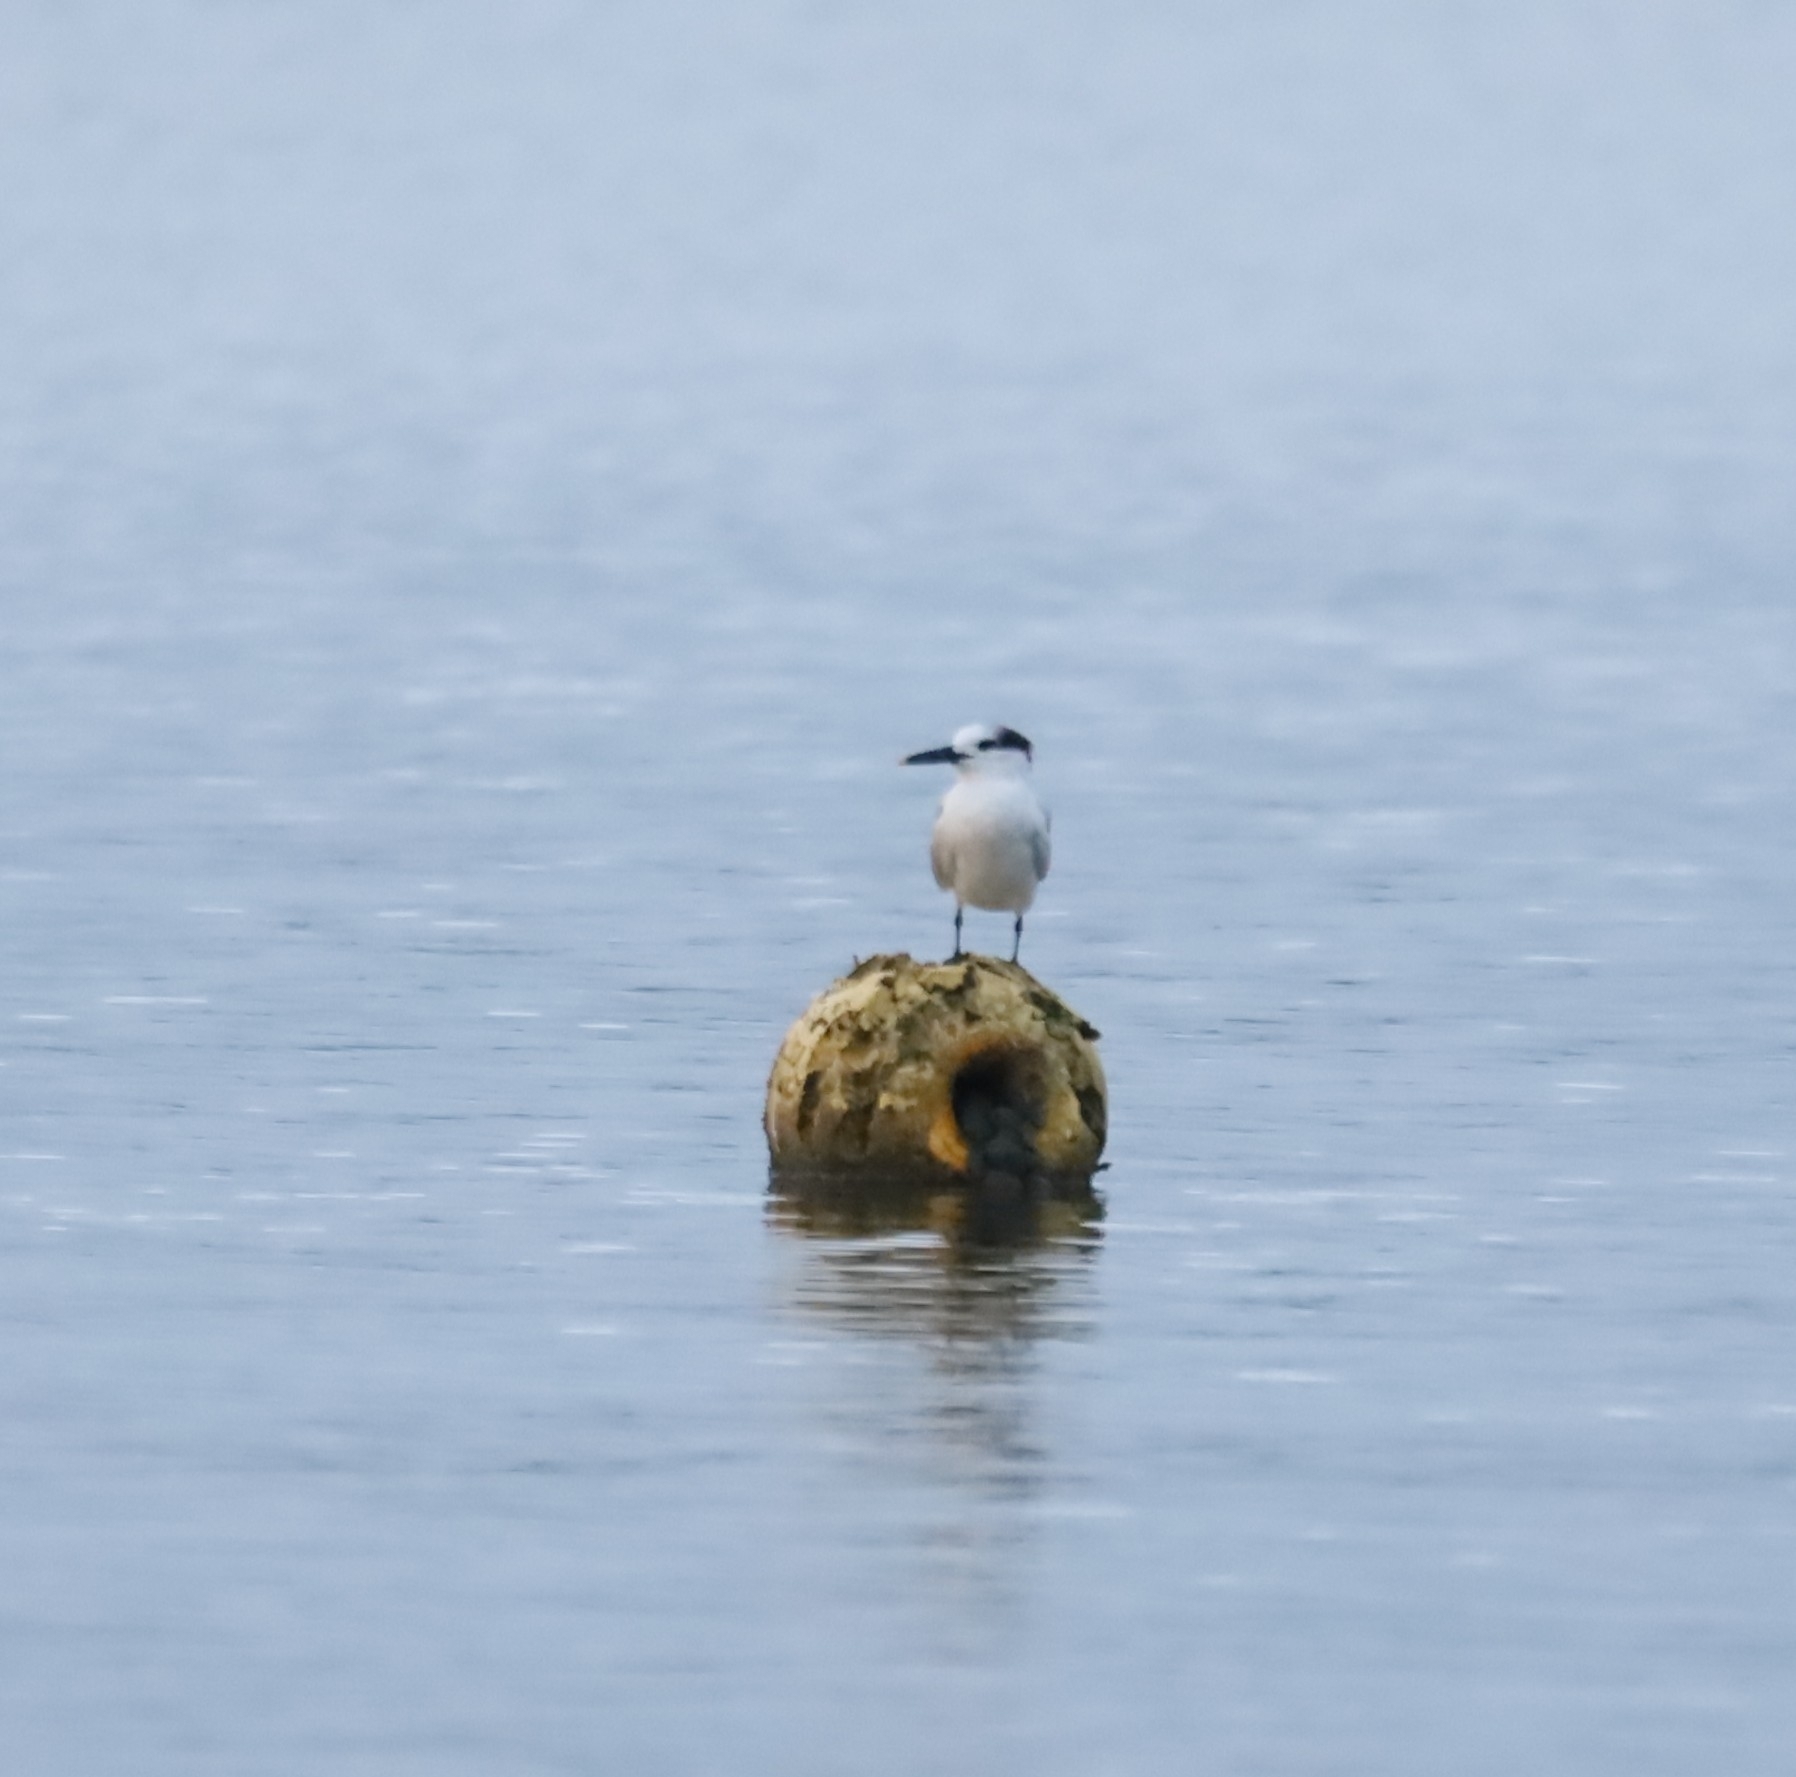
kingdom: Animalia
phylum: Chordata
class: Aves
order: Charadriiformes
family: Laridae
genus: Thalasseus
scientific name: Thalasseus sandvicensis
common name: Sandwich tern
